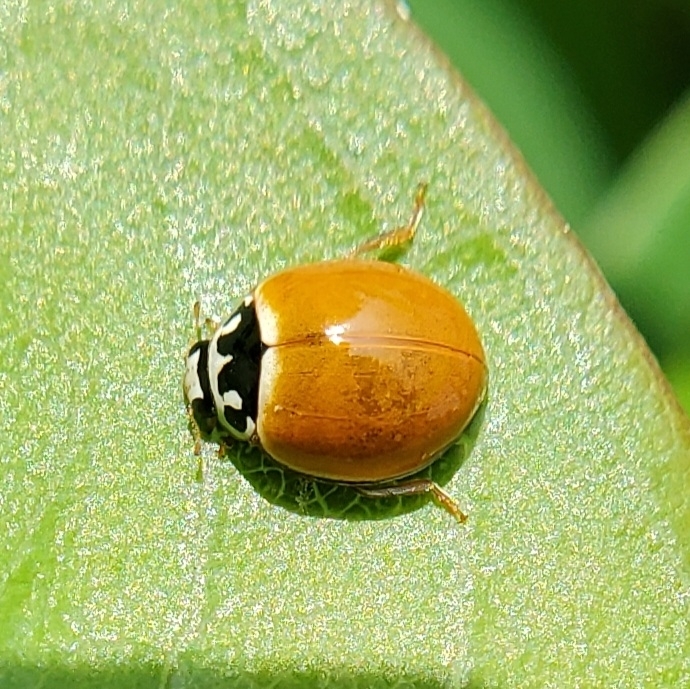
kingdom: Animalia
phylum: Arthropoda
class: Insecta
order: Coleoptera
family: Coccinellidae
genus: Cycloneda
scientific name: Cycloneda munda
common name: Polished lady beetle
